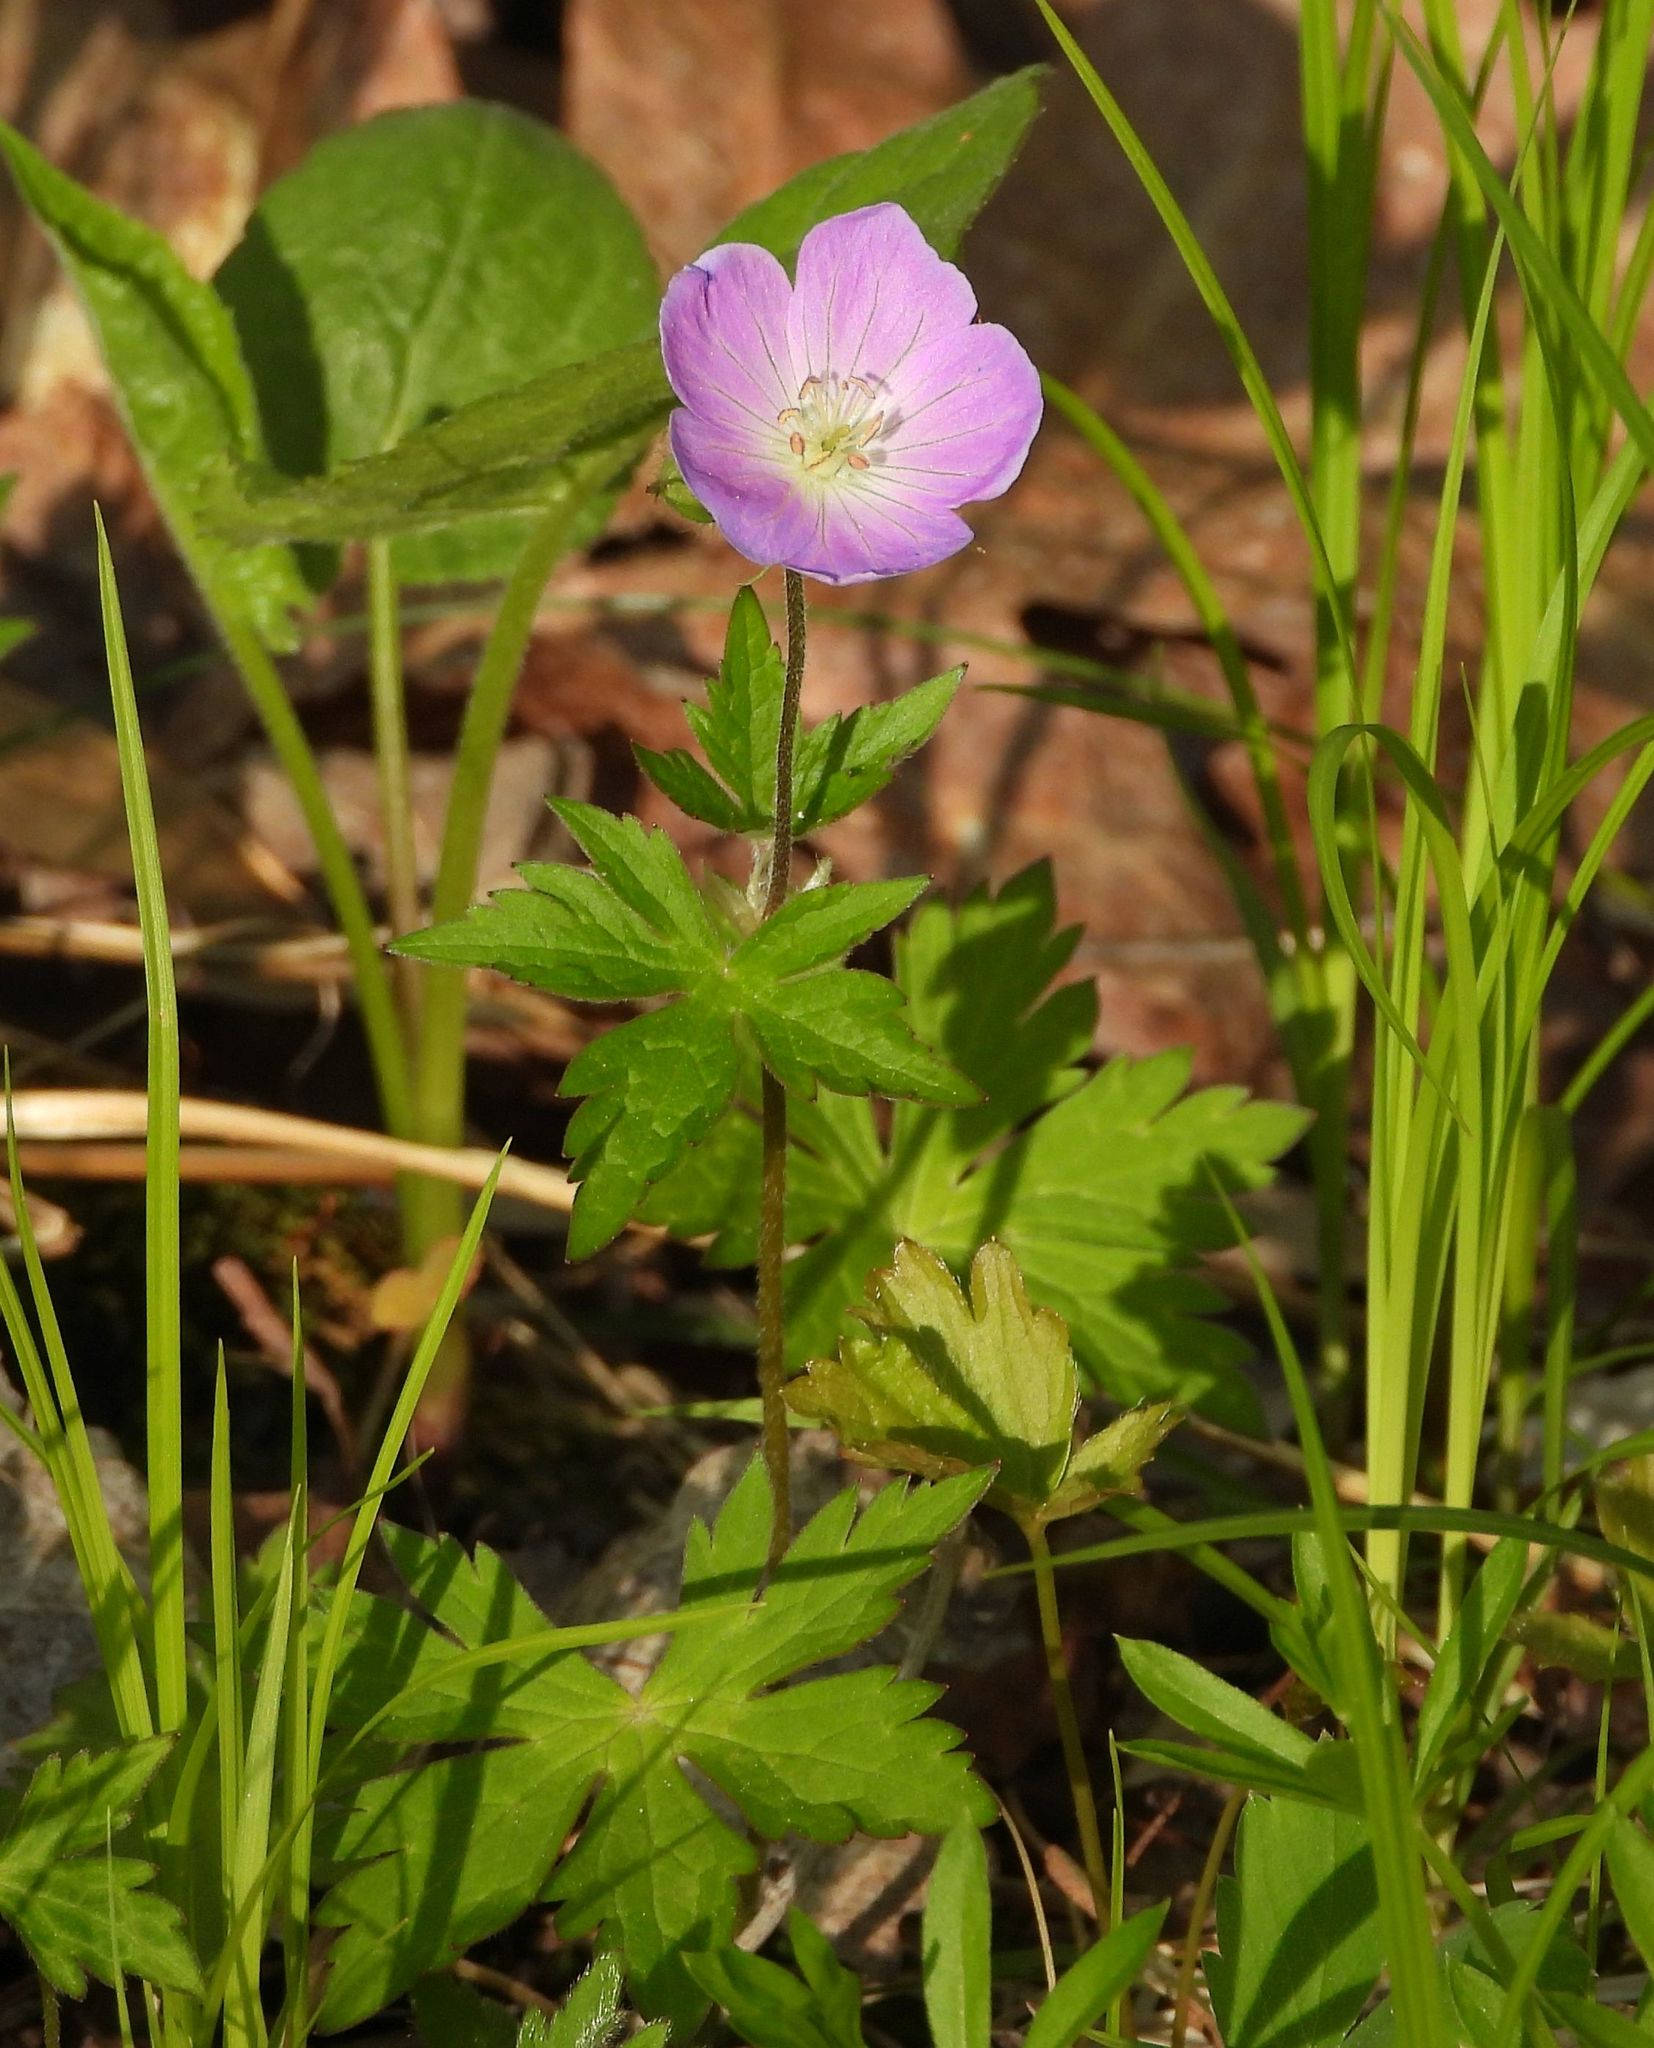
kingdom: Plantae
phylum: Tracheophyta
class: Magnoliopsida
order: Geraniales
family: Geraniaceae
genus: Geranium
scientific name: Geranium maculatum
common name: Spotted geranium
